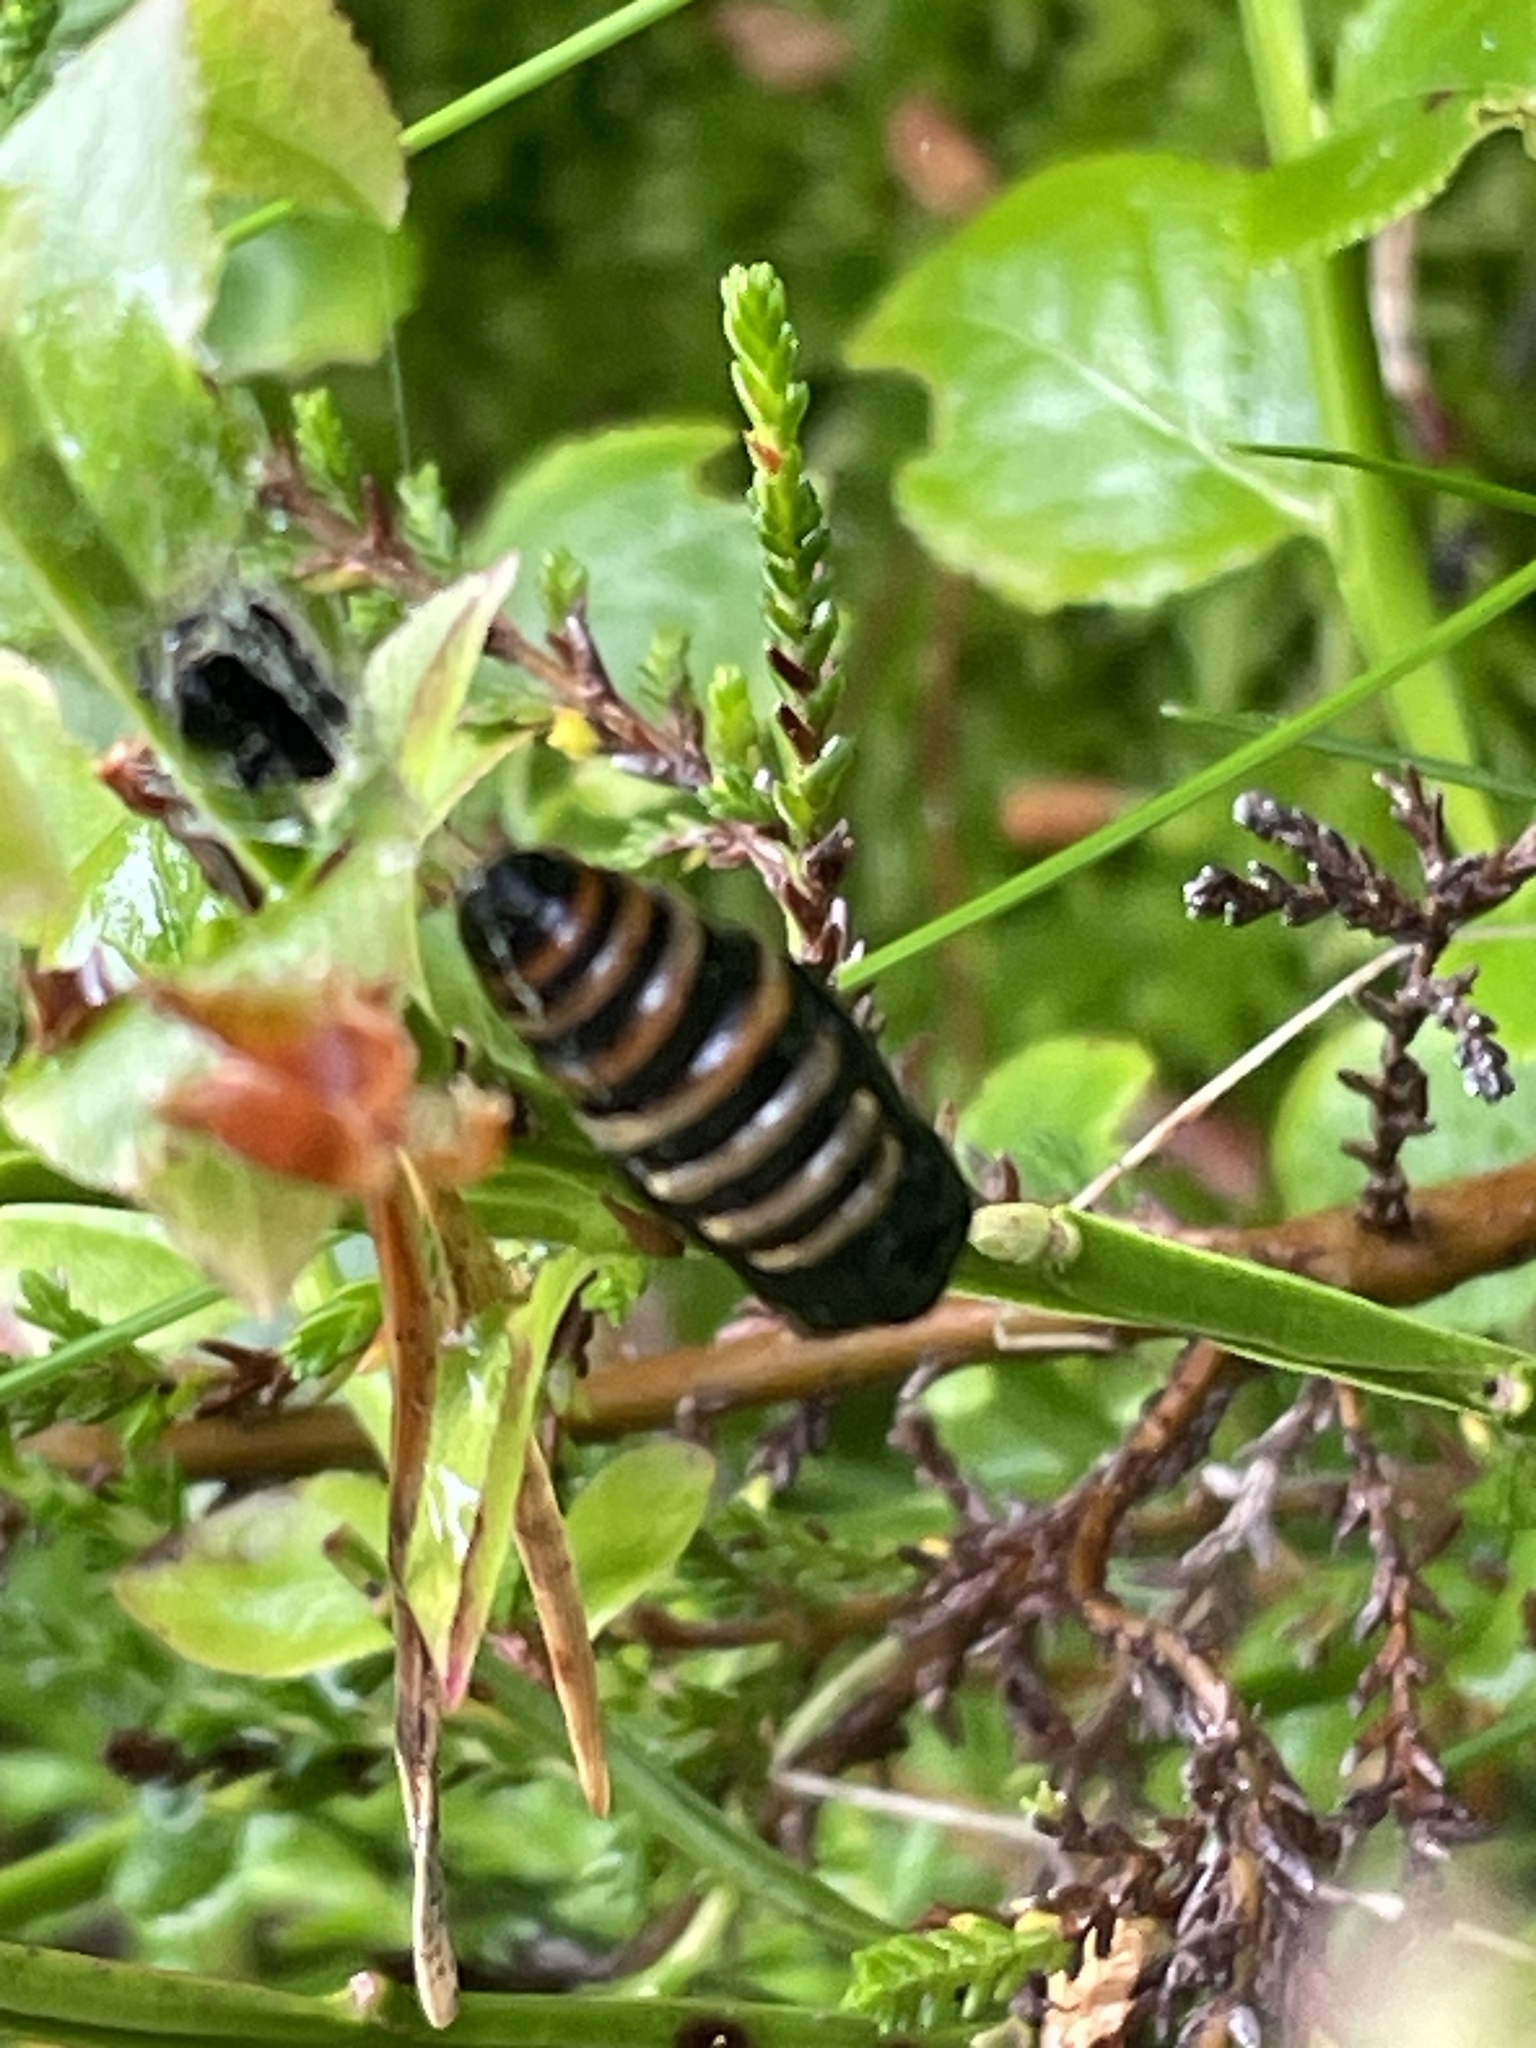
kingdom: Animalia
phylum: Arthropoda
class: Insecta
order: Lepidoptera
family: Geometridae
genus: Abraxas
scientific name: Abraxas grossulariata
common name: Magpie
